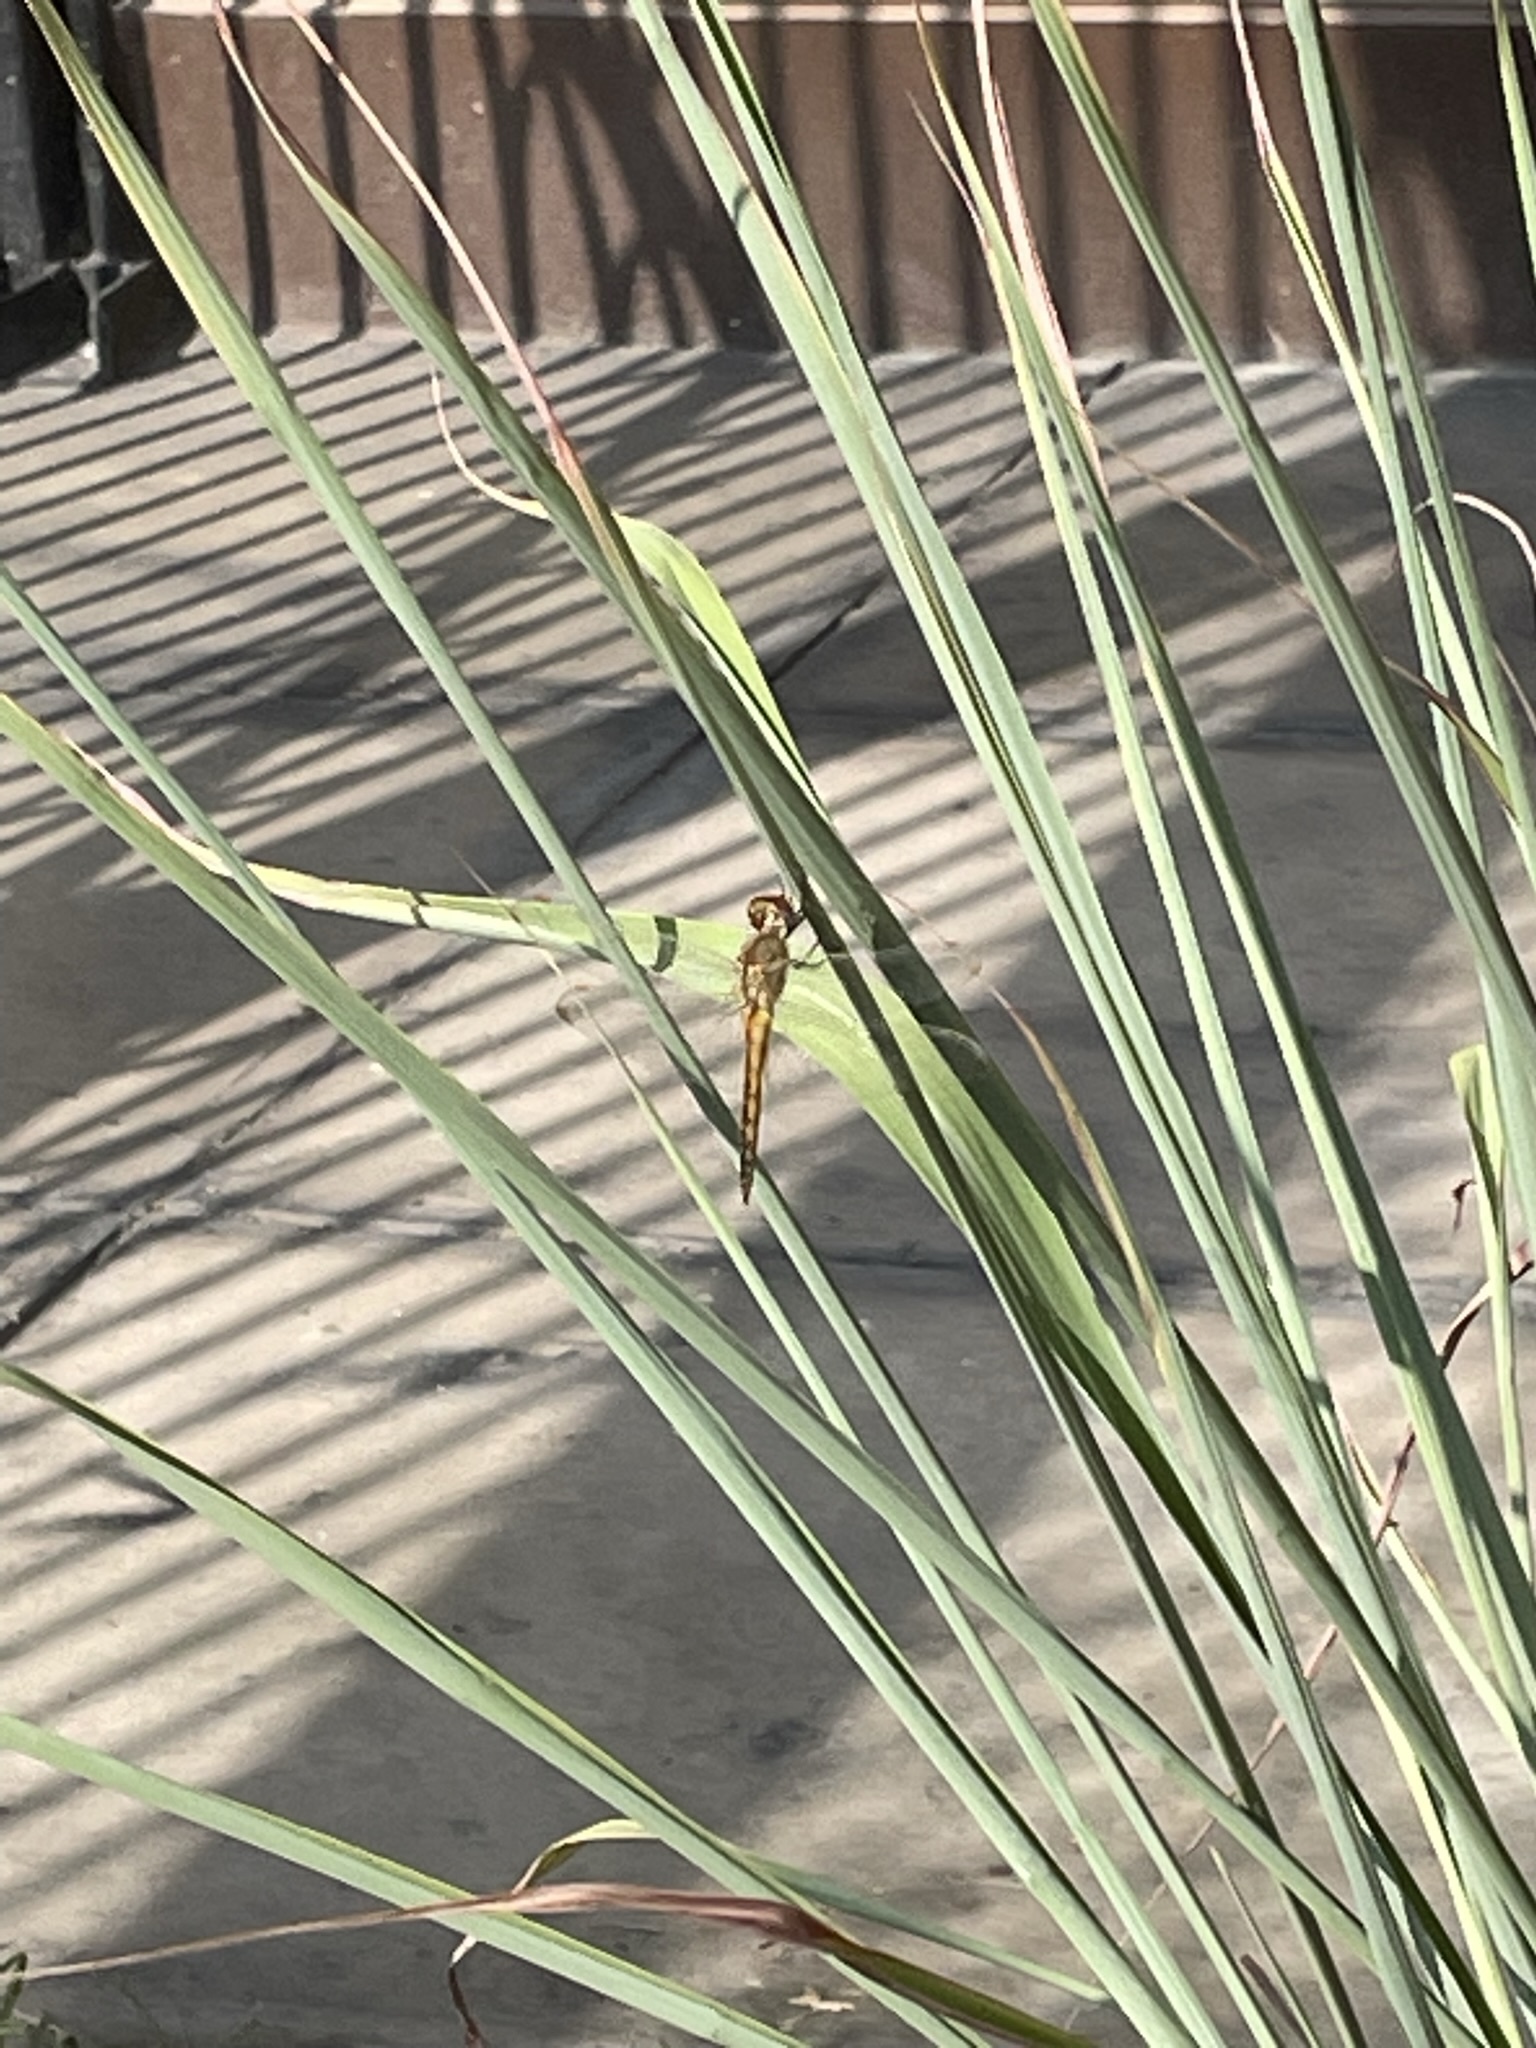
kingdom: Animalia
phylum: Arthropoda
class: Insecta
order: Odonata
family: Libellulidae
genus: Pantala
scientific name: Pantala flavescens
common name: Wandering glider
